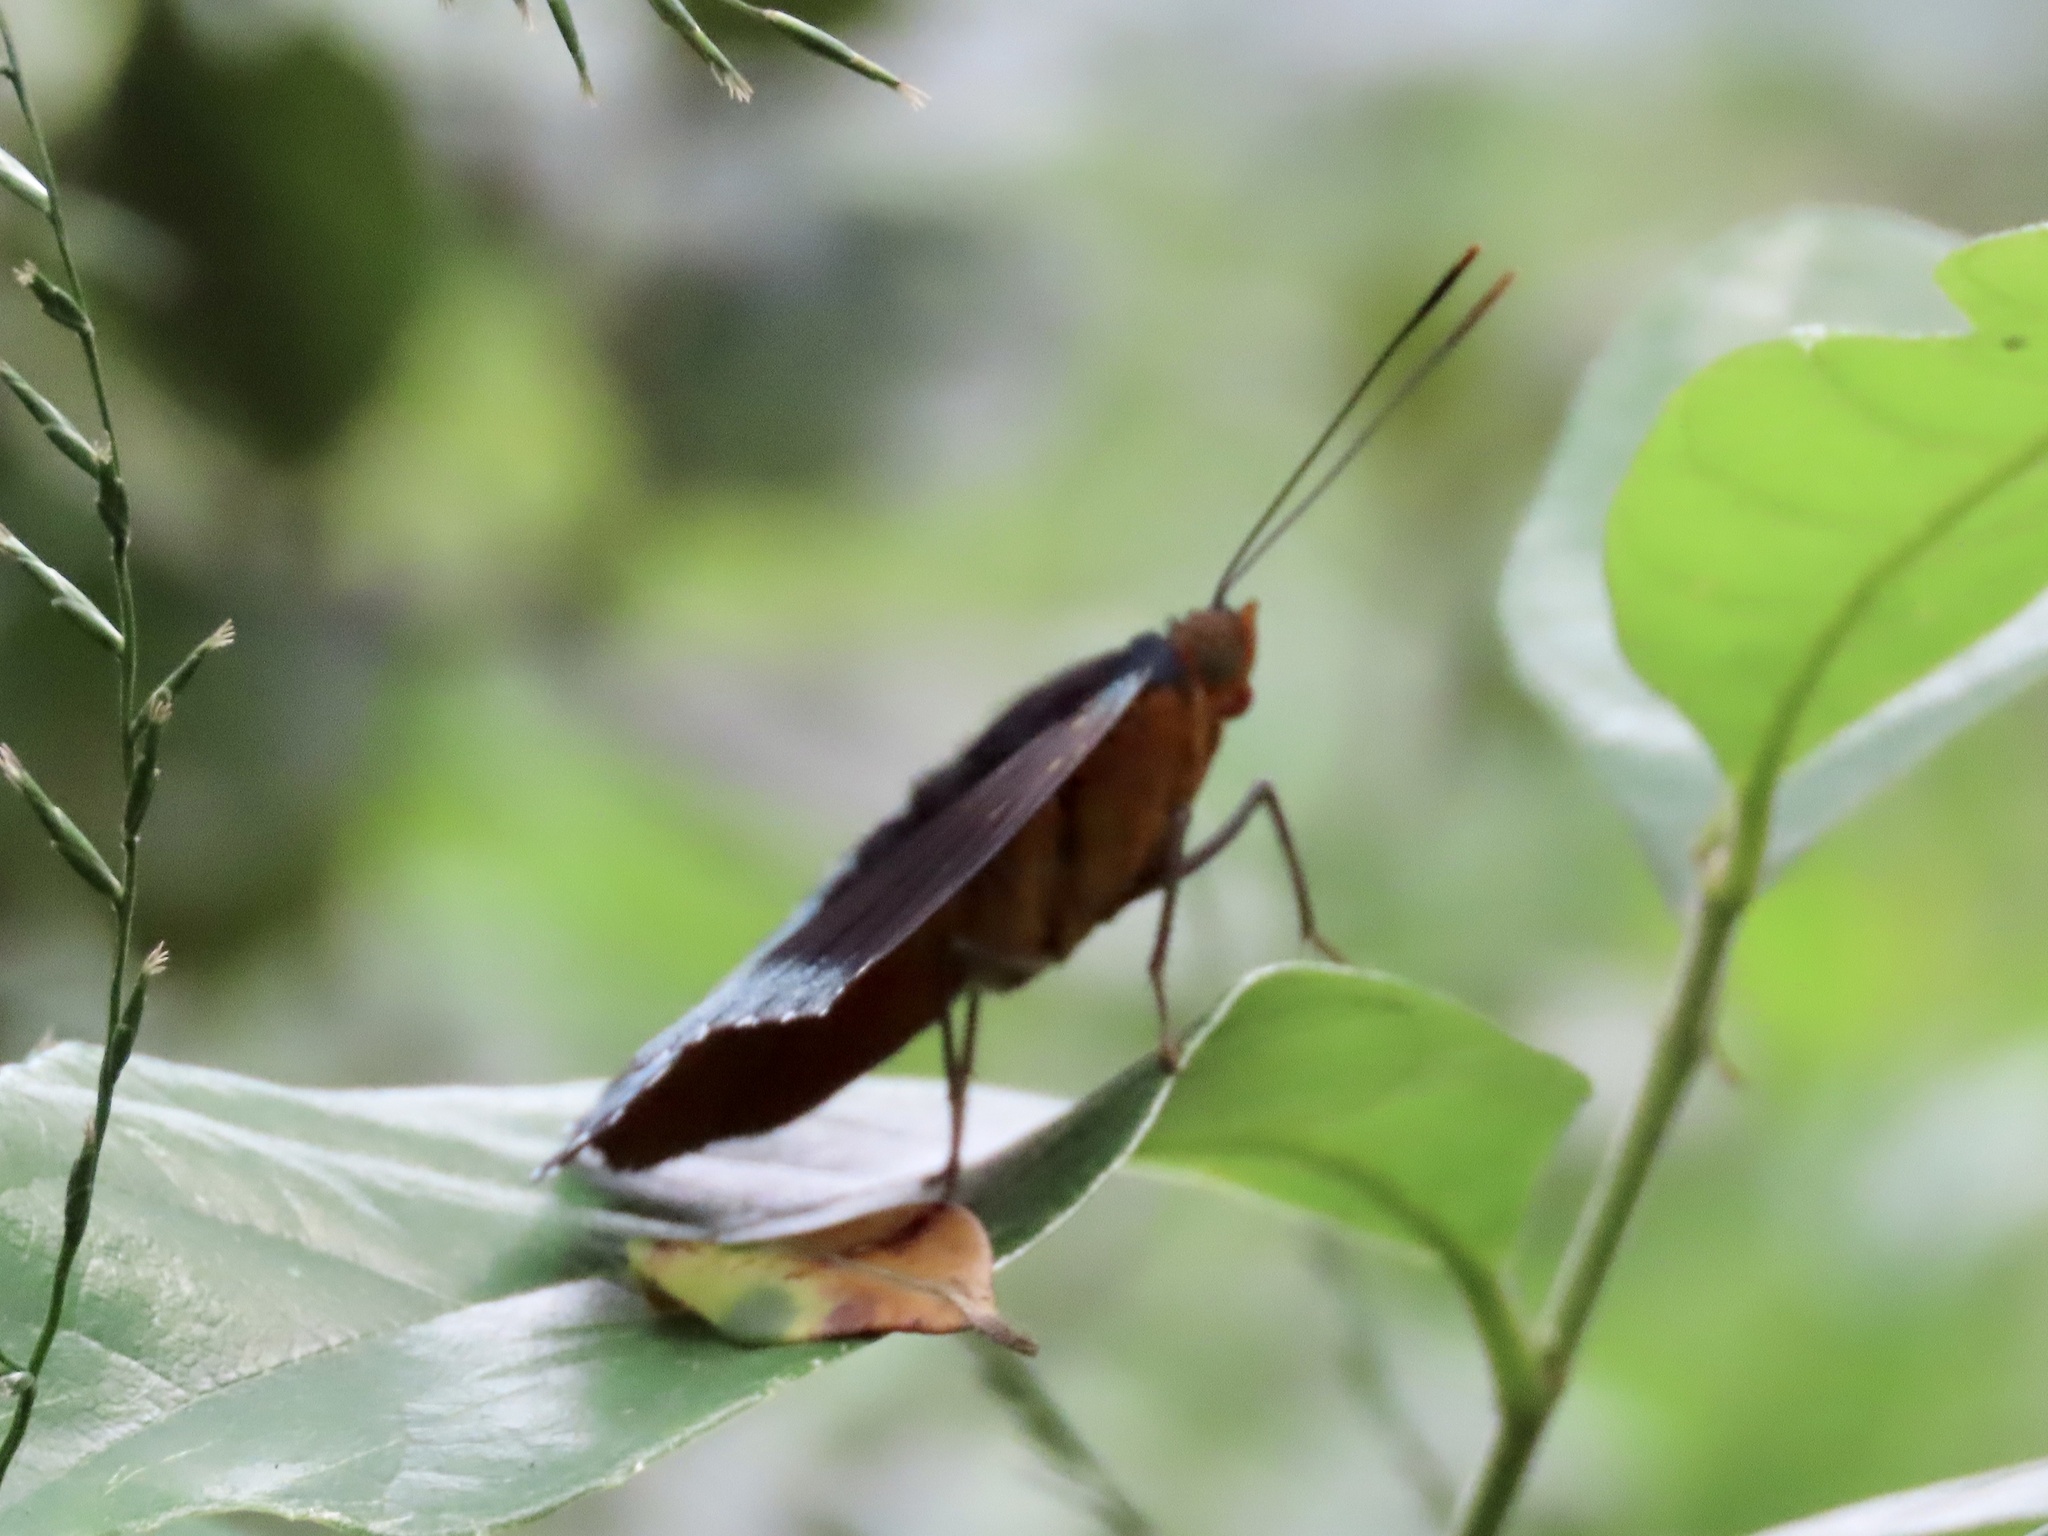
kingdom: Animalia
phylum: Arthropoda
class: Insecta
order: Lepidoptera
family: Nymphalidae
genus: Lexias
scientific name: Lexias pardalis
